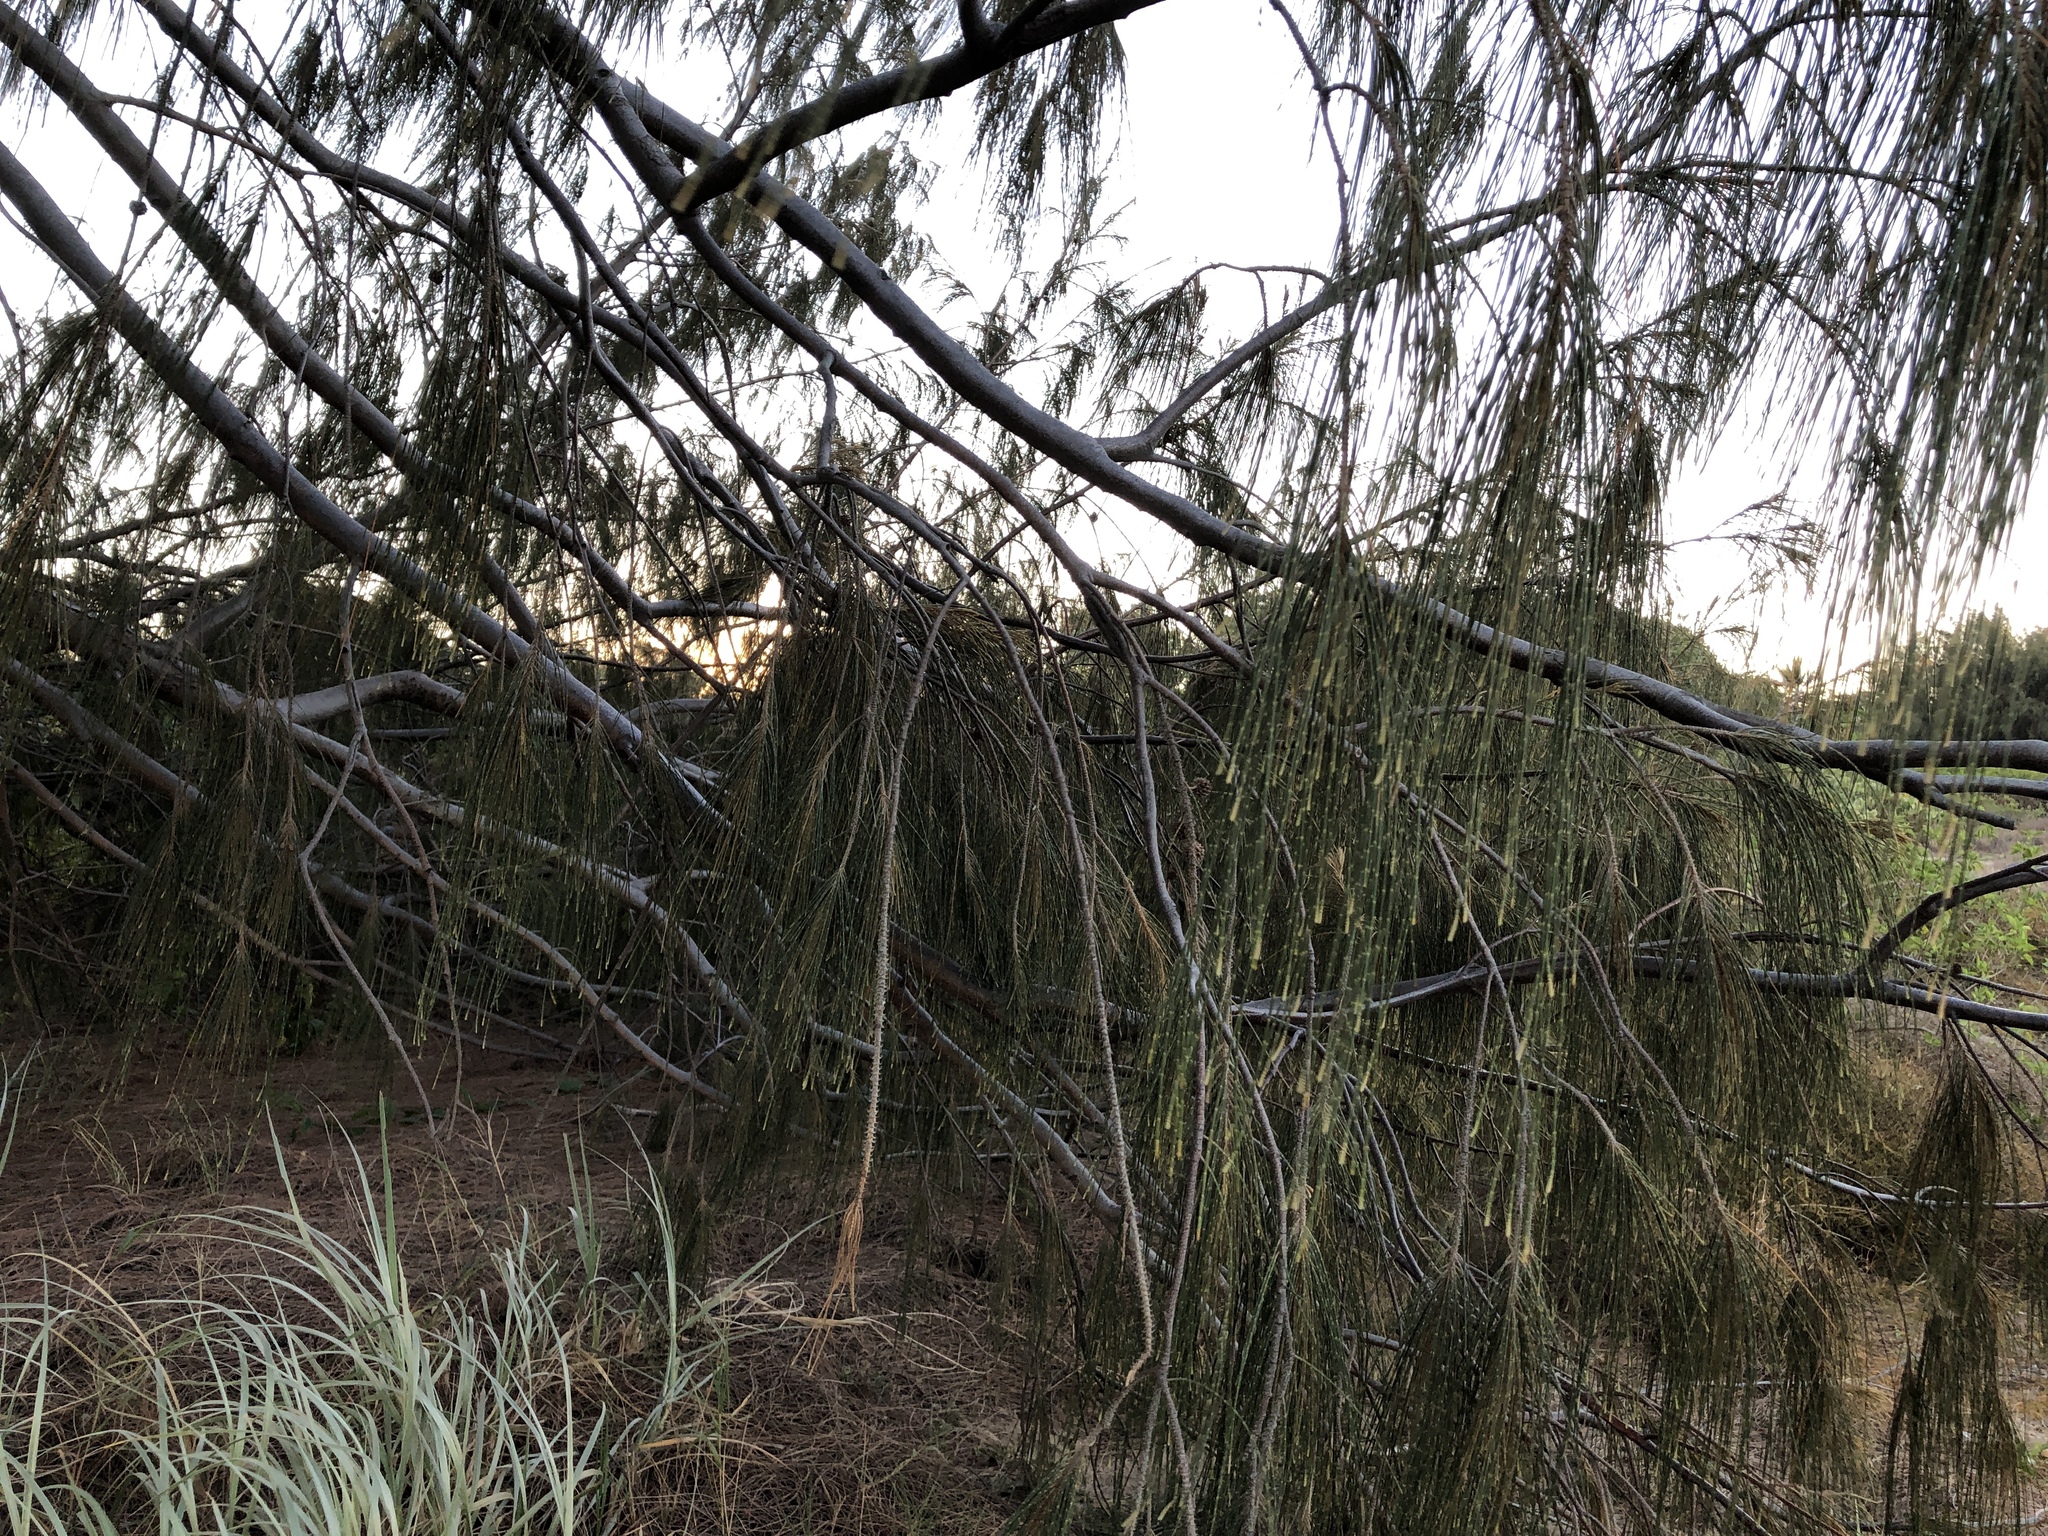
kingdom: Plantae
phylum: Tracheophyta
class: Magnoliopsida
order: Fagales
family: Casuarinaceae
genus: Casuarina
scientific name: Casuarina equisetifolia
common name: Beach sheoak
